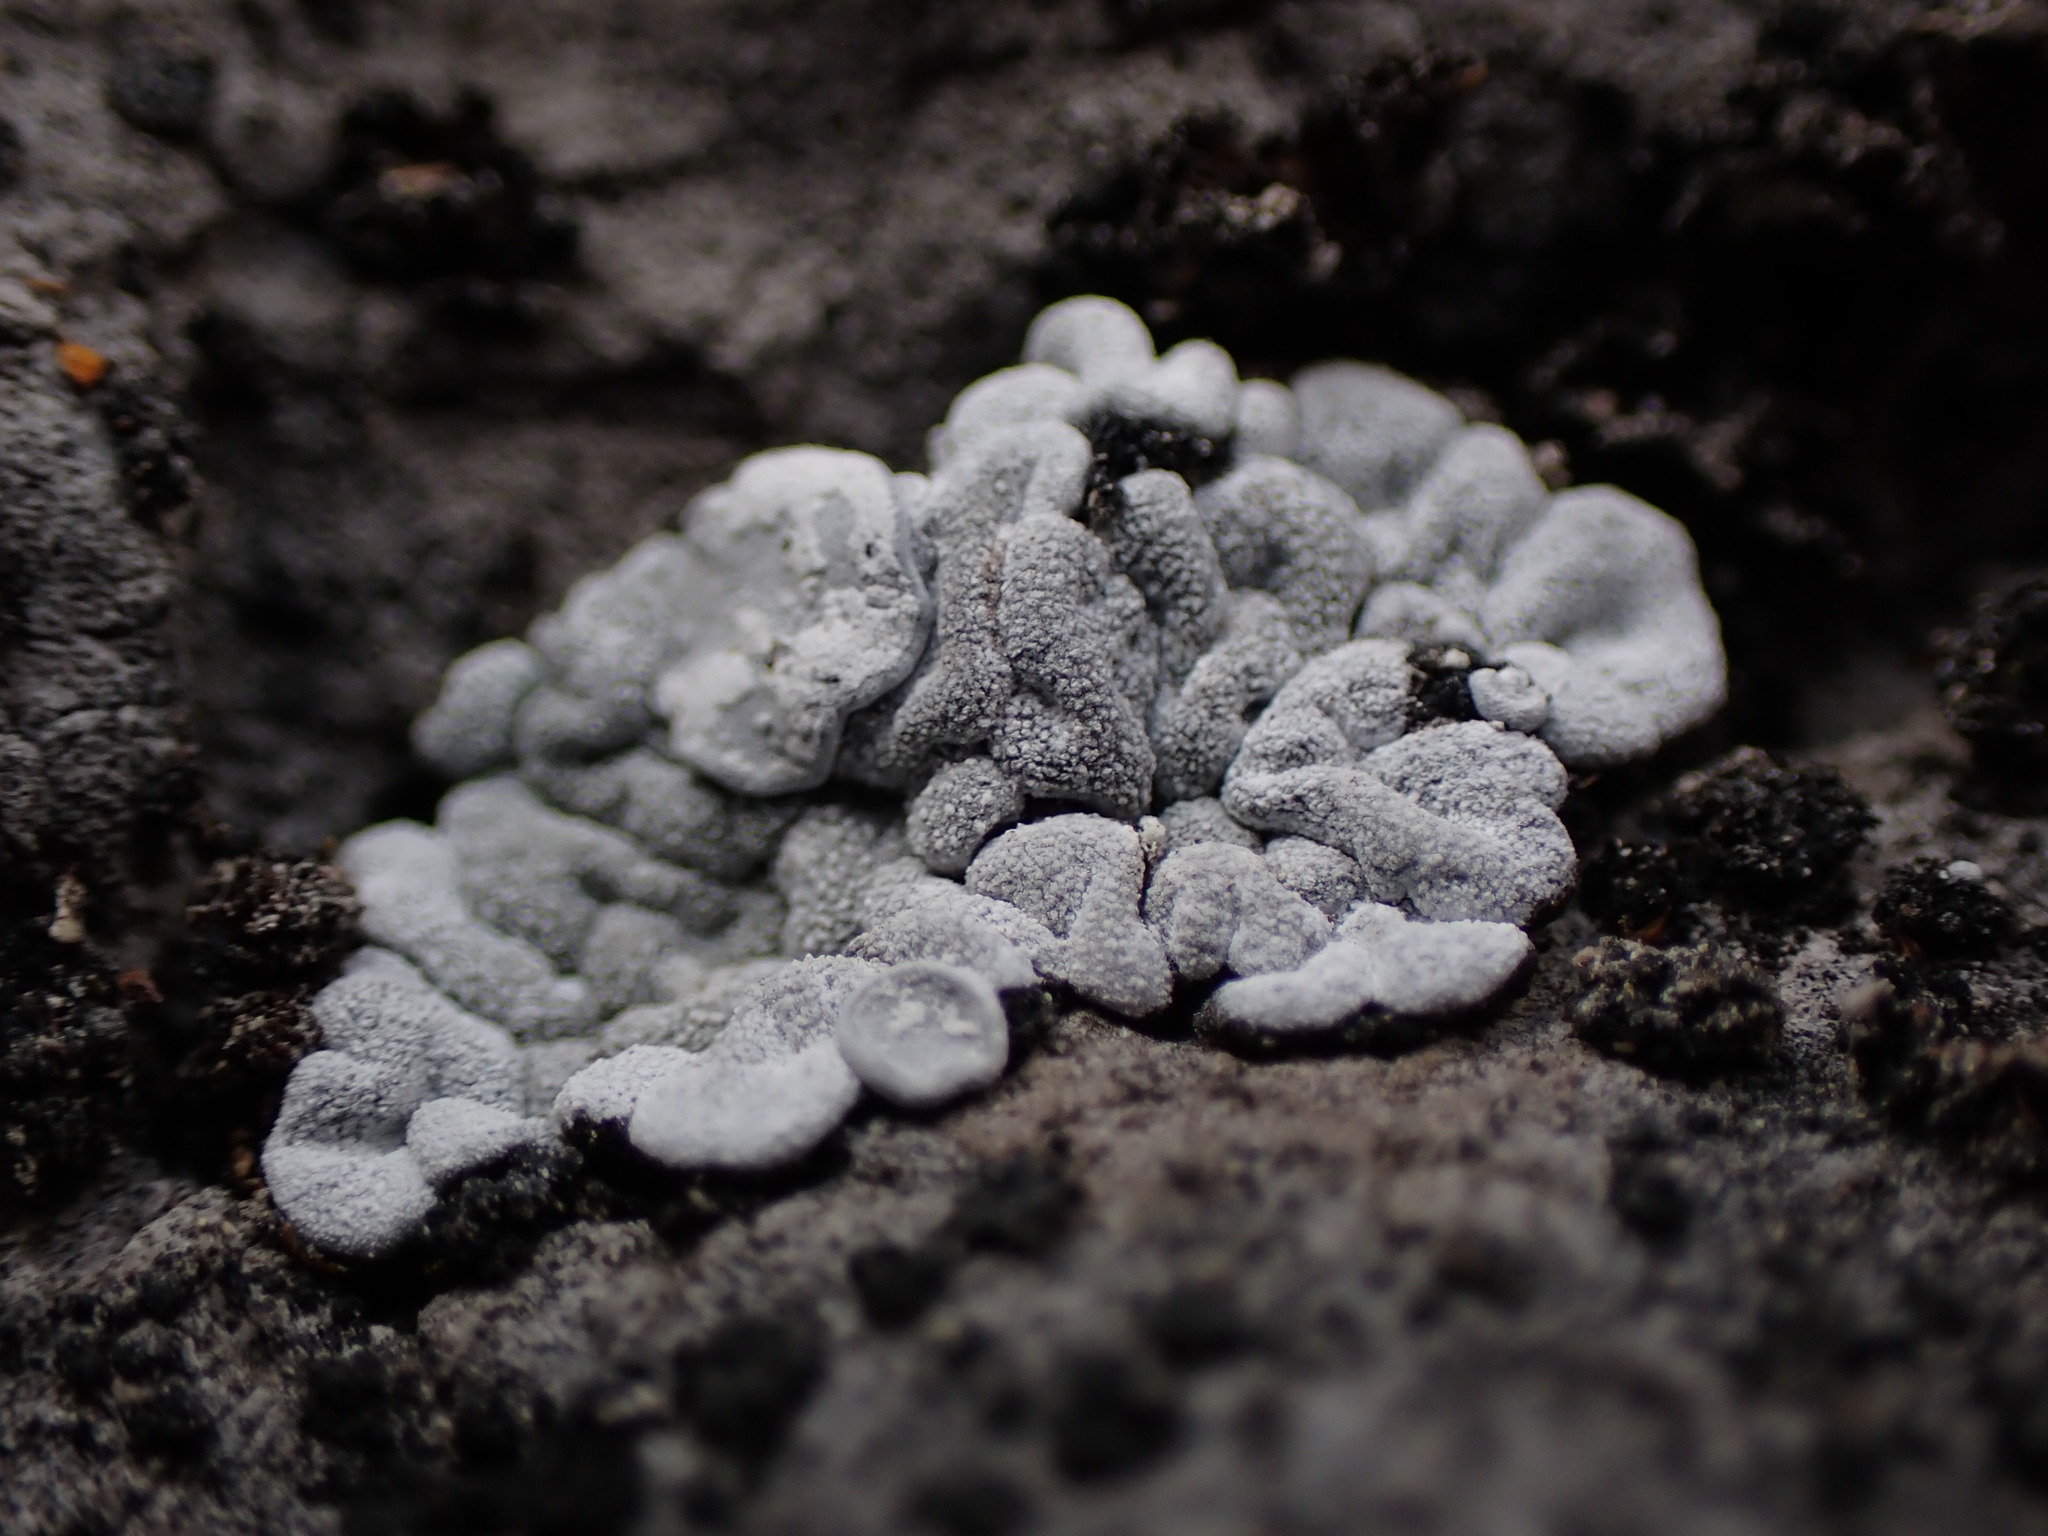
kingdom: Fungi
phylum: Ascomycota
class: Lecanoromycetes
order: Lecanorales
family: Ramalinaceae
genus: Thalloidima
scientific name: Thalloidima candidum
